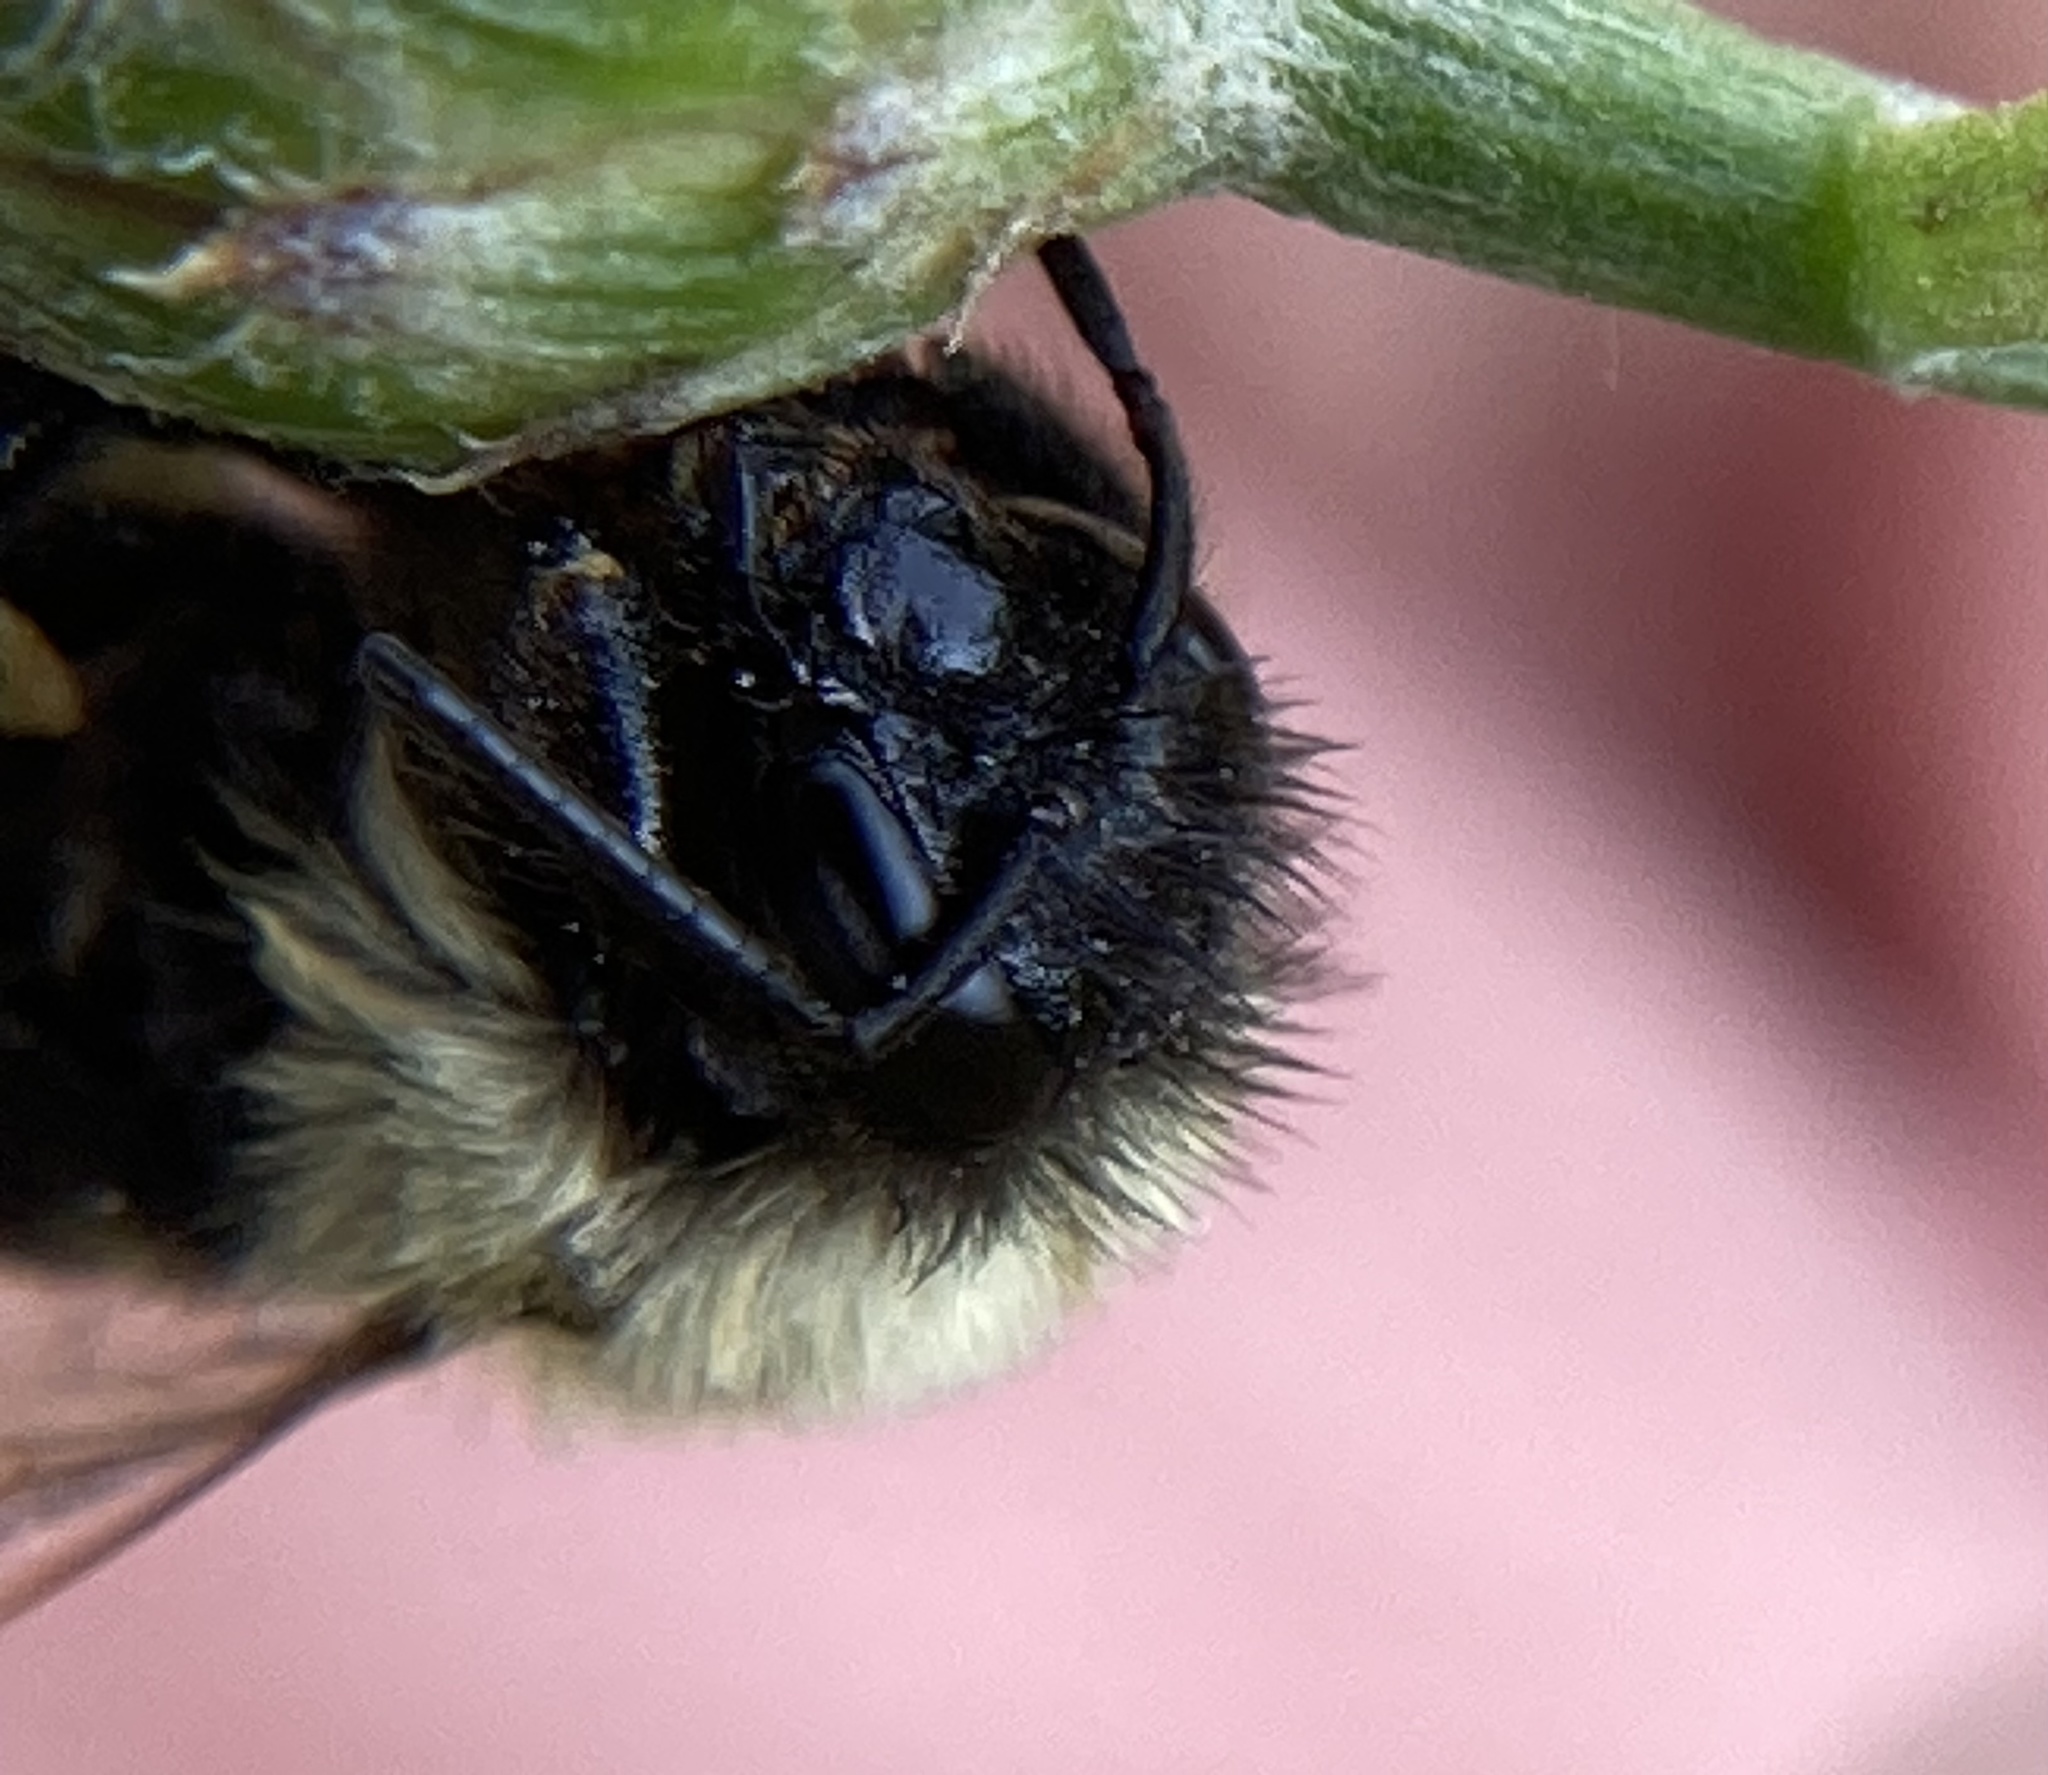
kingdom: Animalia
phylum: Arthropoda
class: Insecta
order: Hymenoptera
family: Apidae
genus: Bombus
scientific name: Bombus impatiens
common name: Common eastern bumble bee
